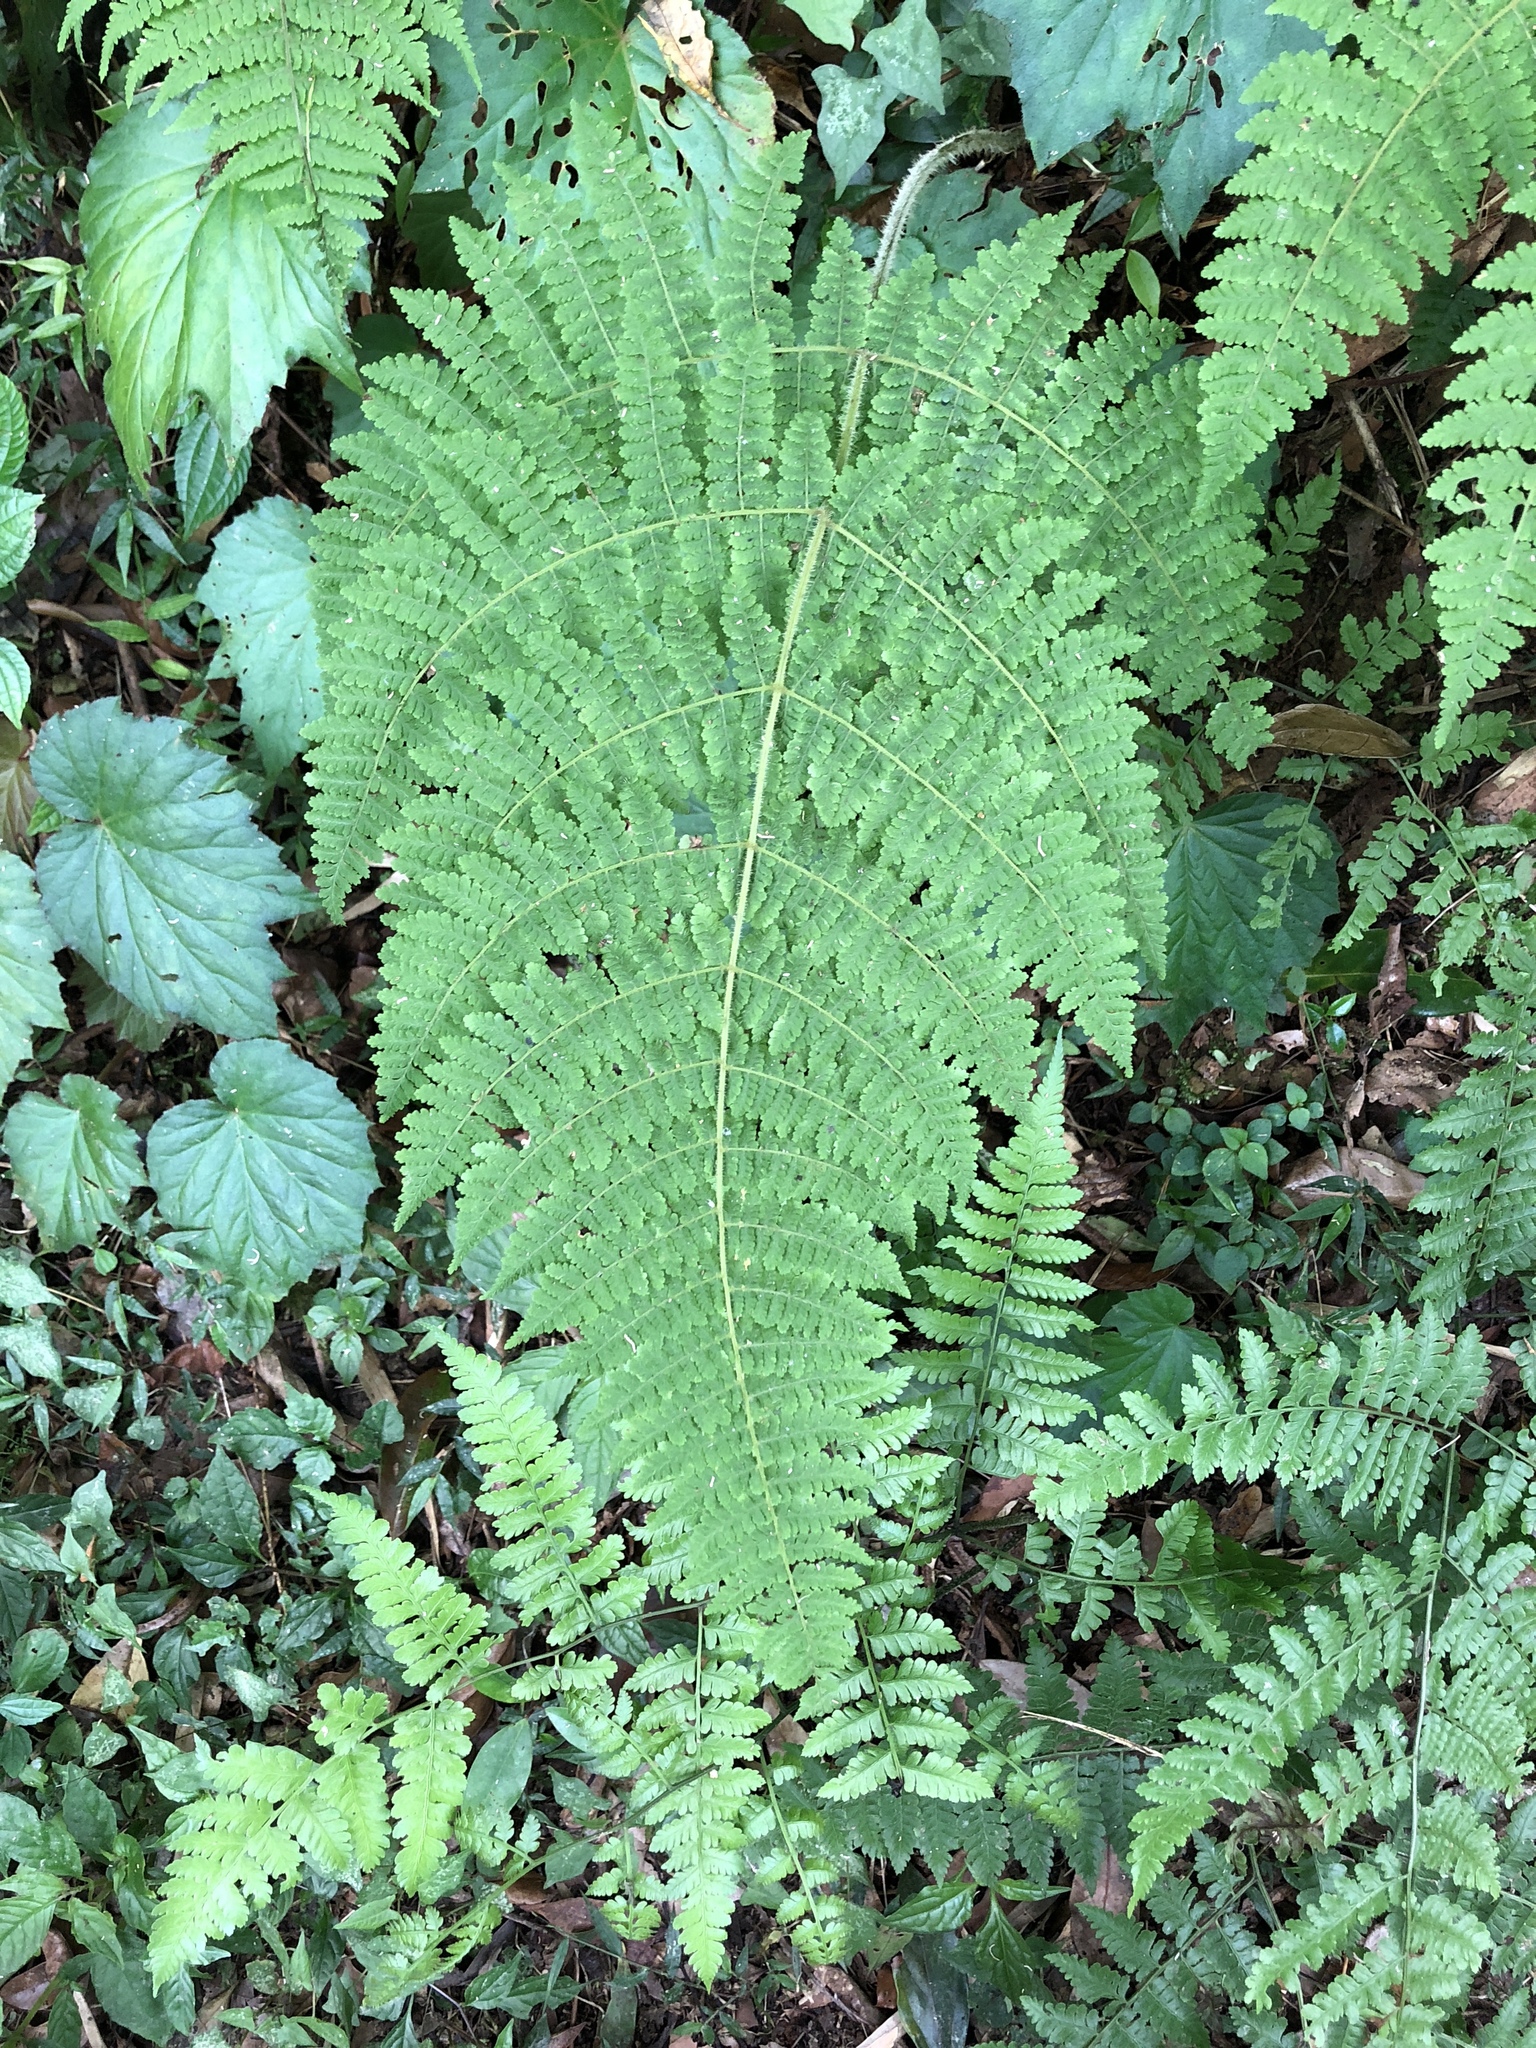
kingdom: Plantae
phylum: Tracheophyta
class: Polypodiopsida
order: Polypodiales
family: Cystopteridaceae
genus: Acystopteris
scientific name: Acystopteris tenuisecta
